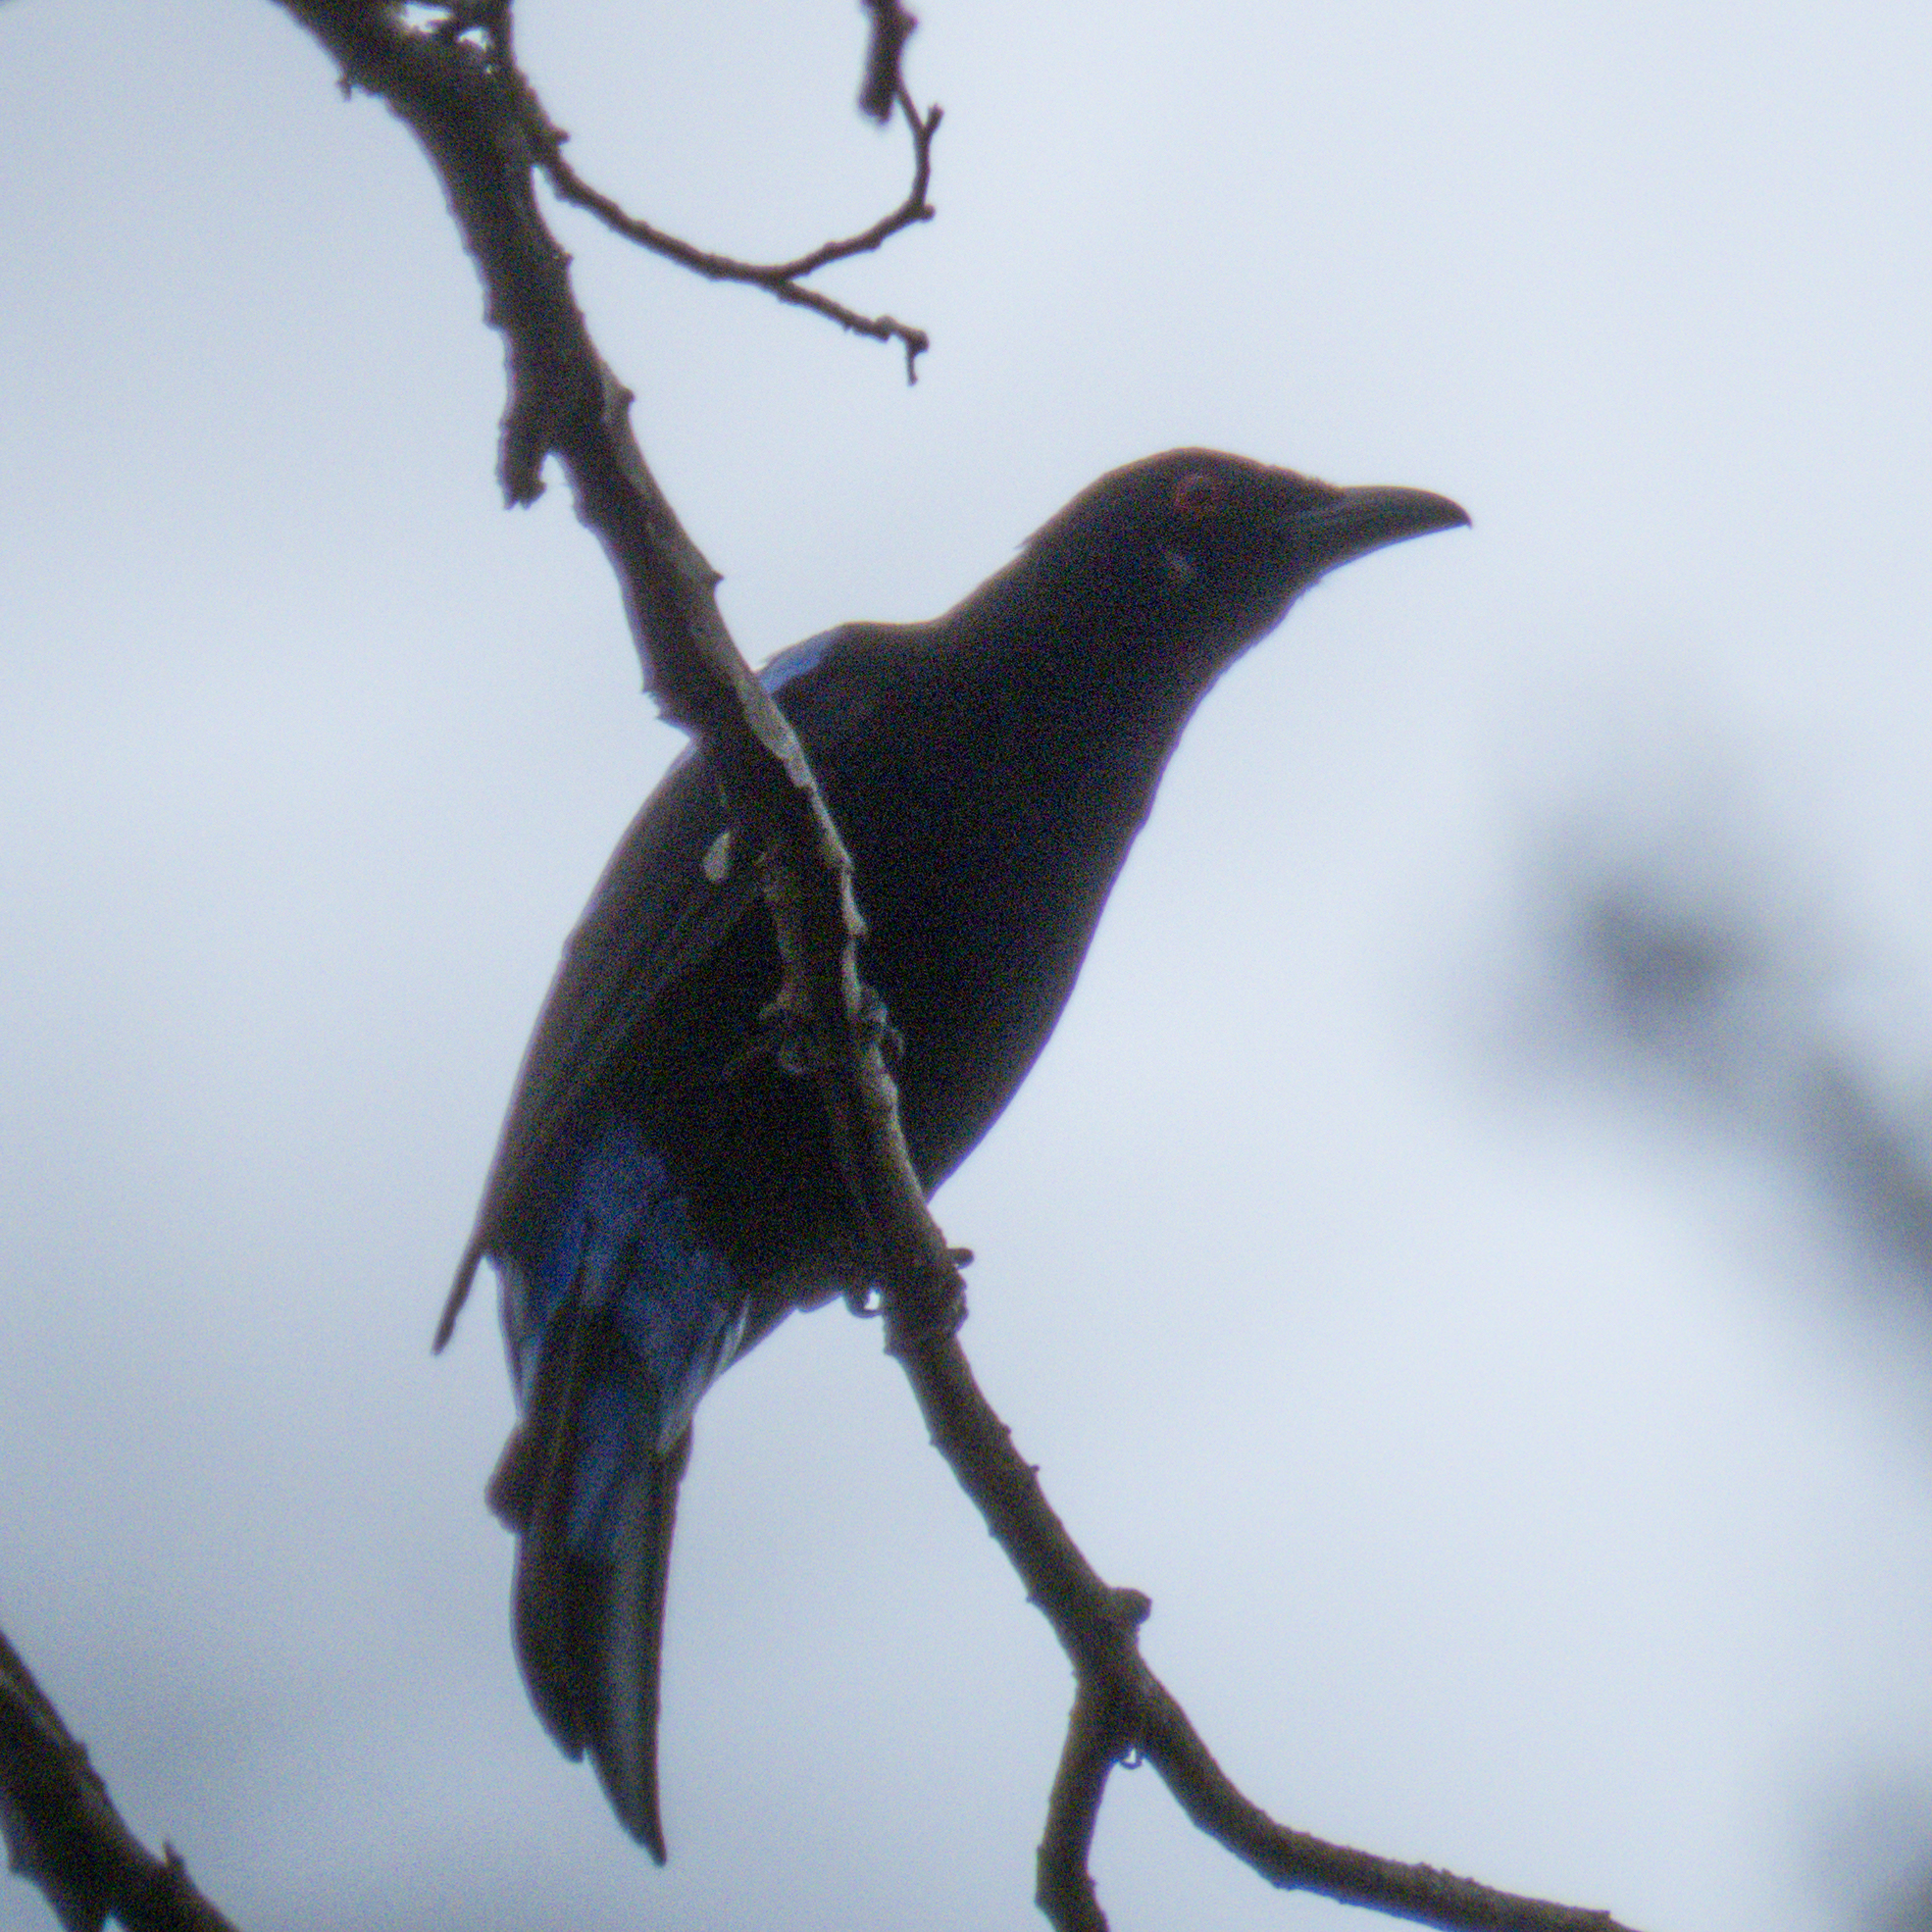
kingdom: Animalia
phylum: Chordata
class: Aves
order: Passeriformes
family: Irenidae
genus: Irena
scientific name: Irena puella
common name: Asian fairy-bluebird
